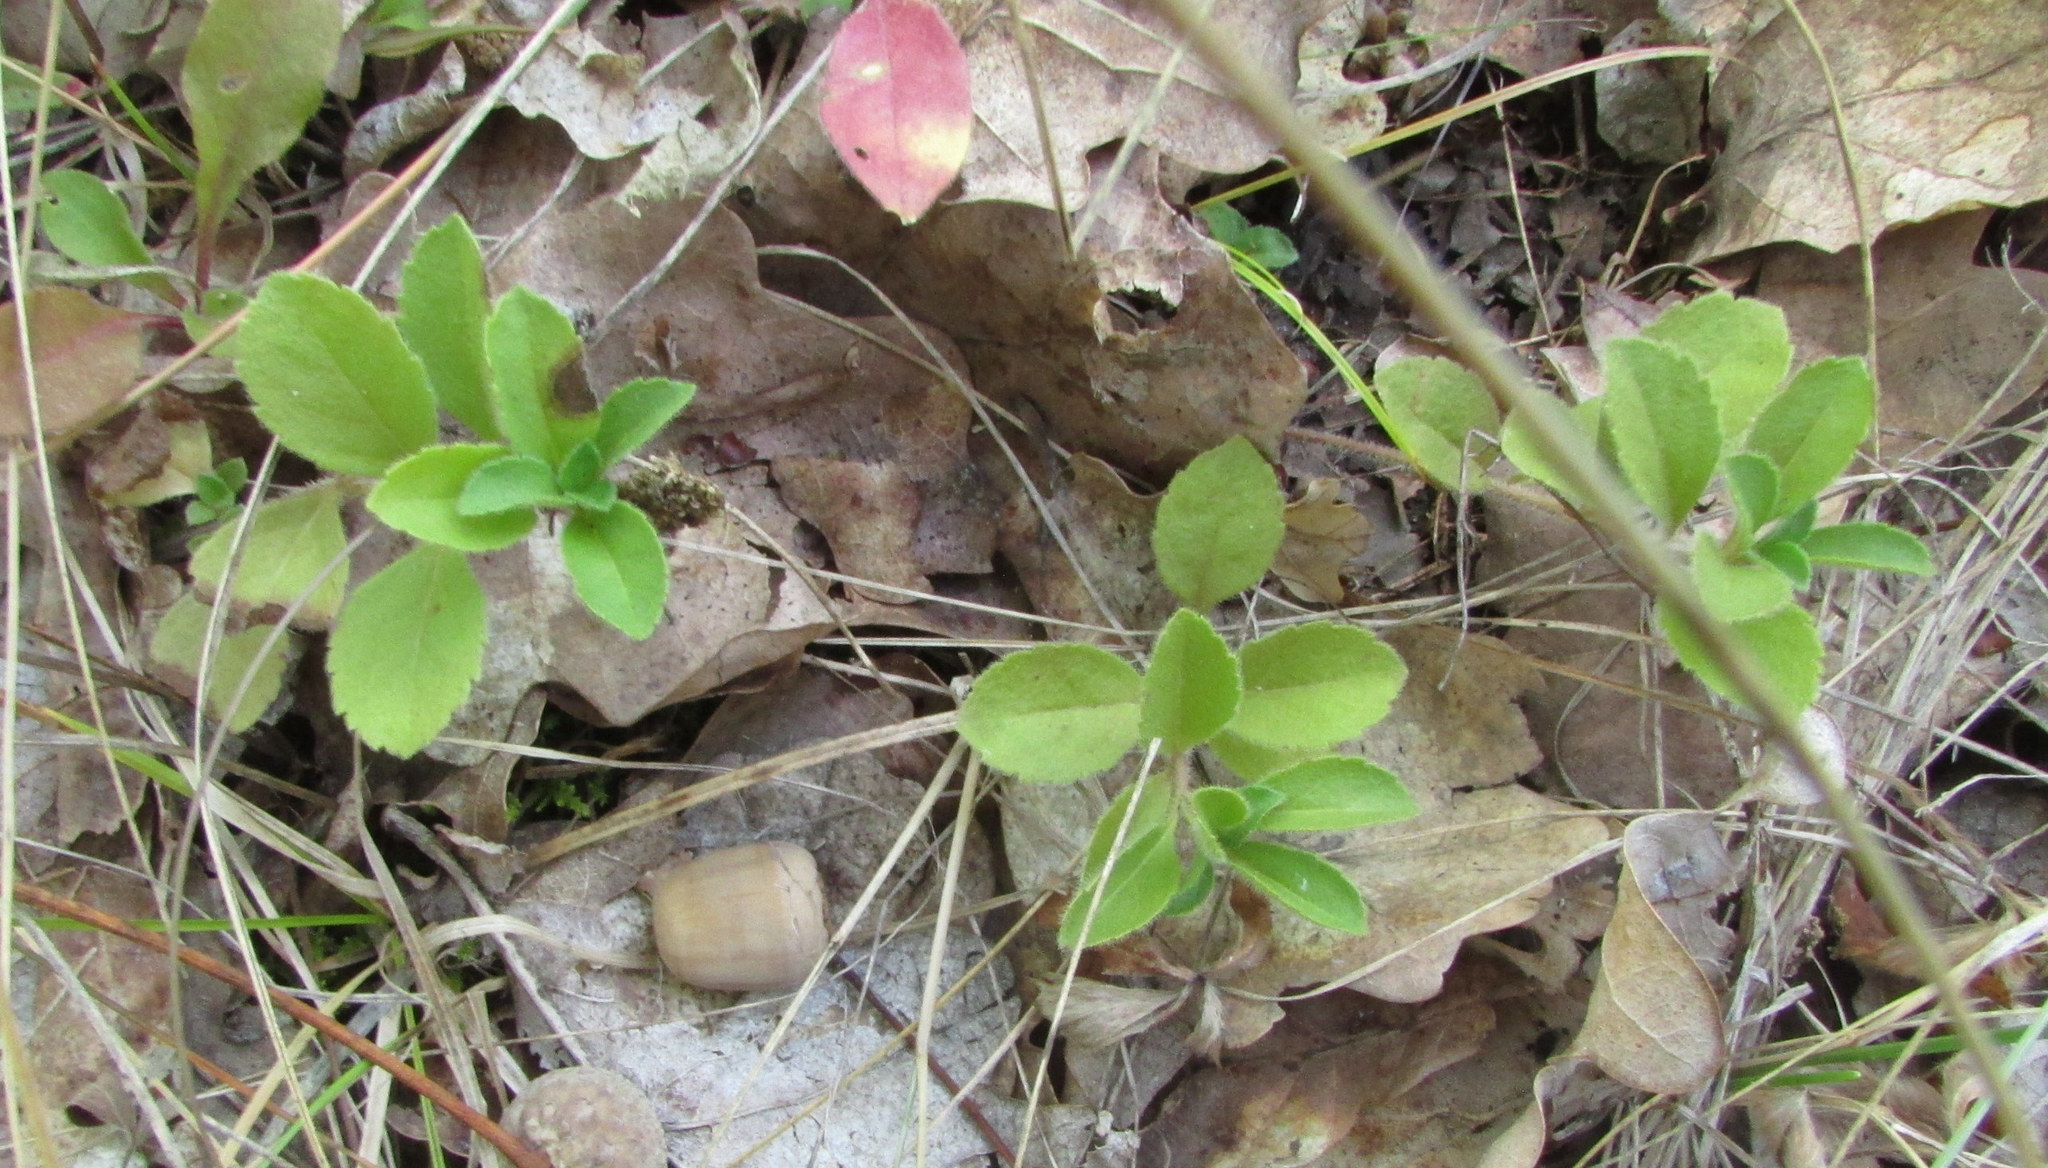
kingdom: Plantae
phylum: Tracheophyta
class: Magnoliopsida
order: Lamiales
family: Plantaginaceae
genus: Veronica
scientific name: Veronica officinalis
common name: Common speedwell
